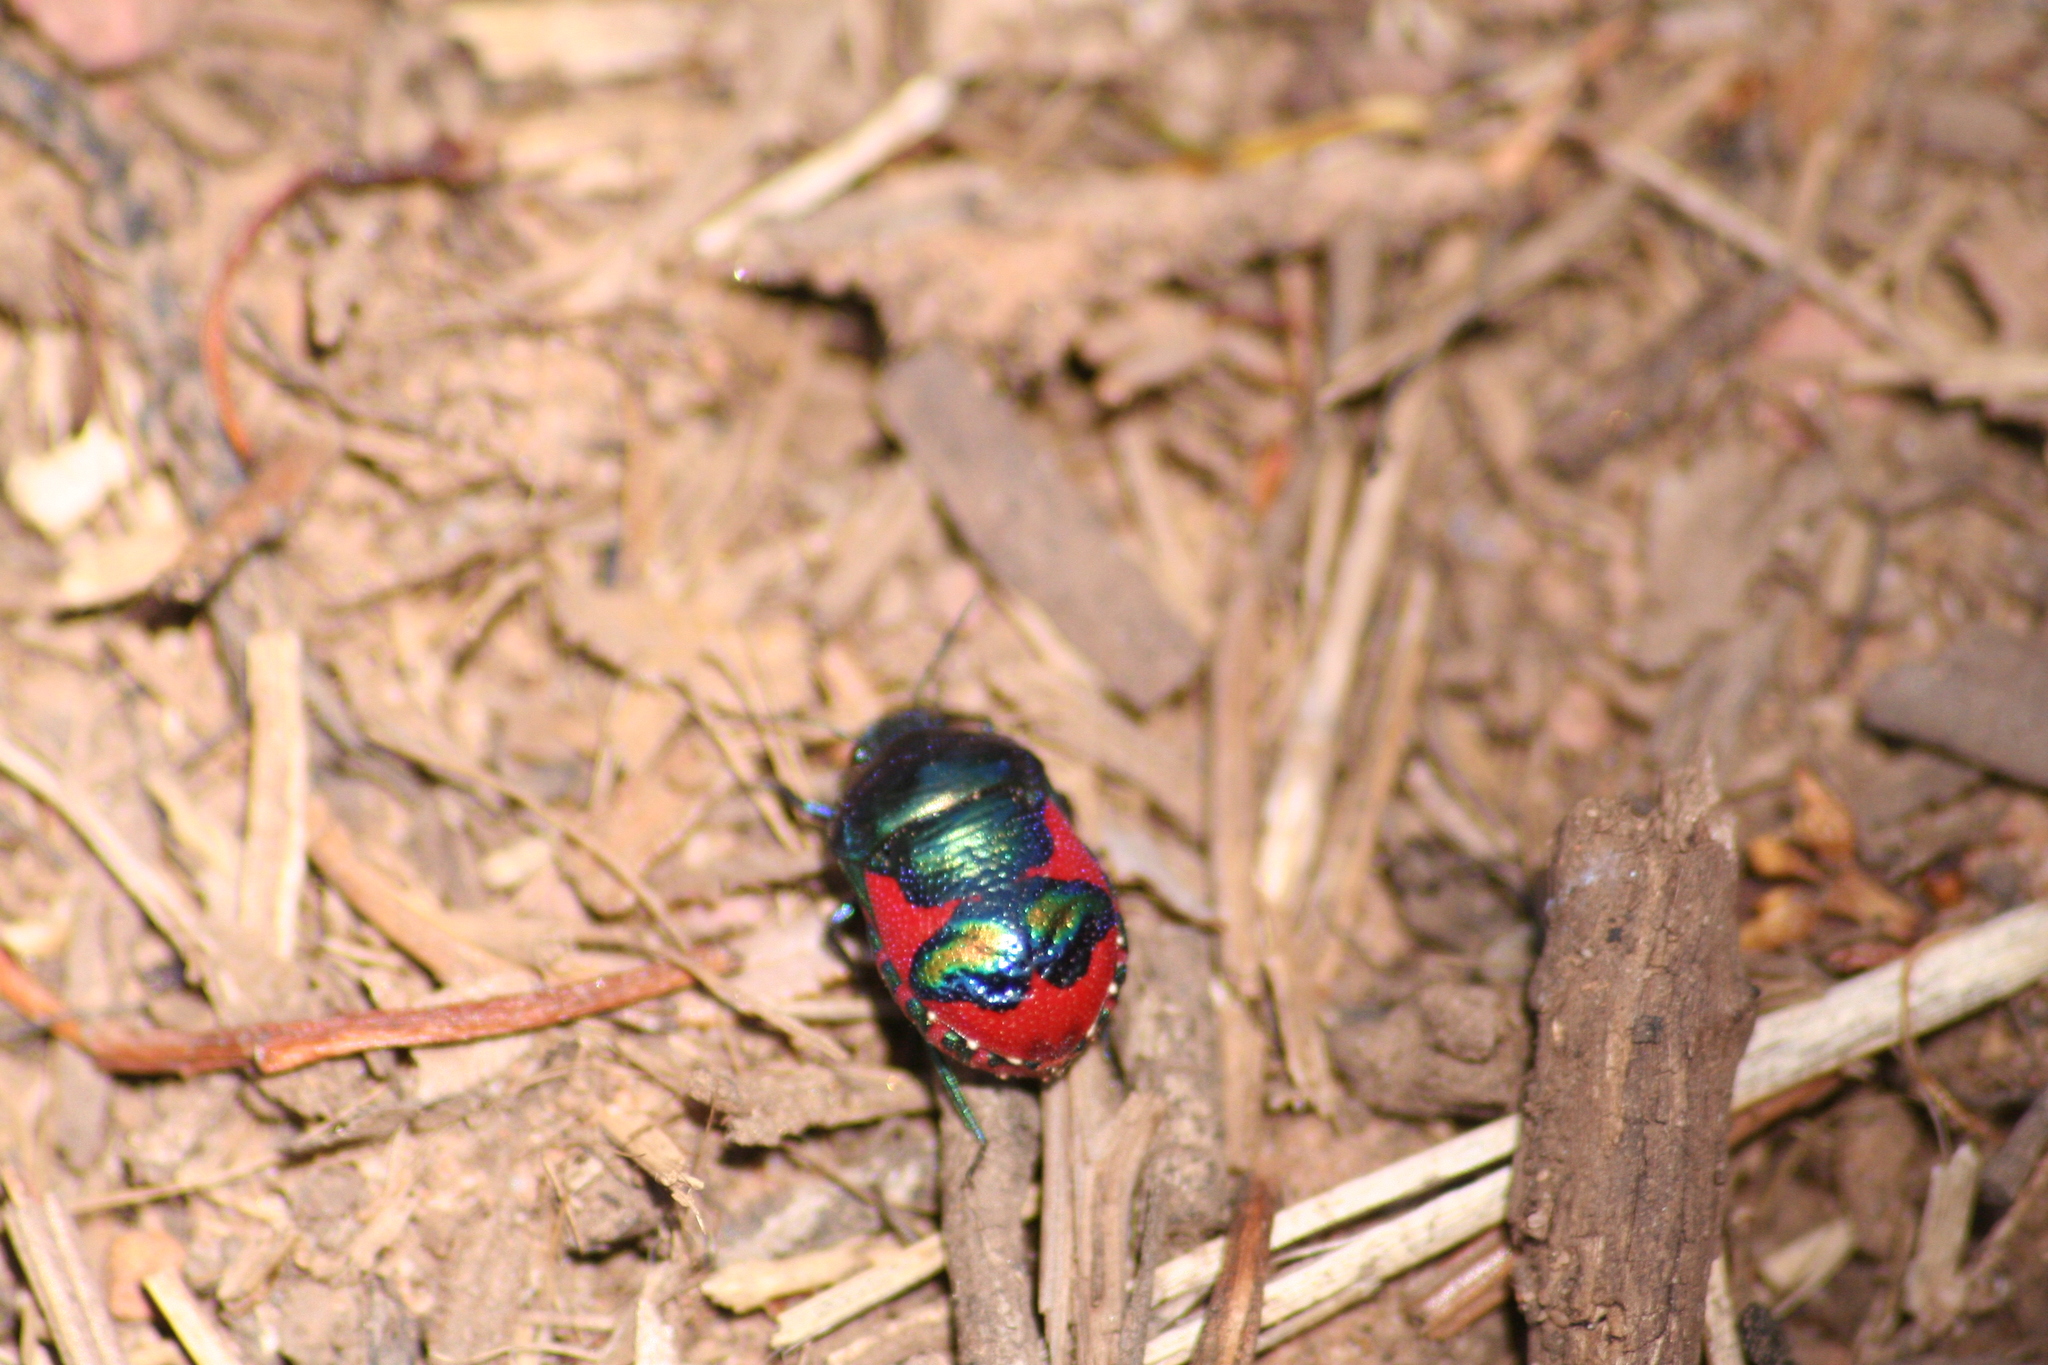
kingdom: Animalia
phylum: Arthropoda
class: Insecta
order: Hemiptera
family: Scutelleridae
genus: Choerocoris
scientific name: Choerocoris paganus
